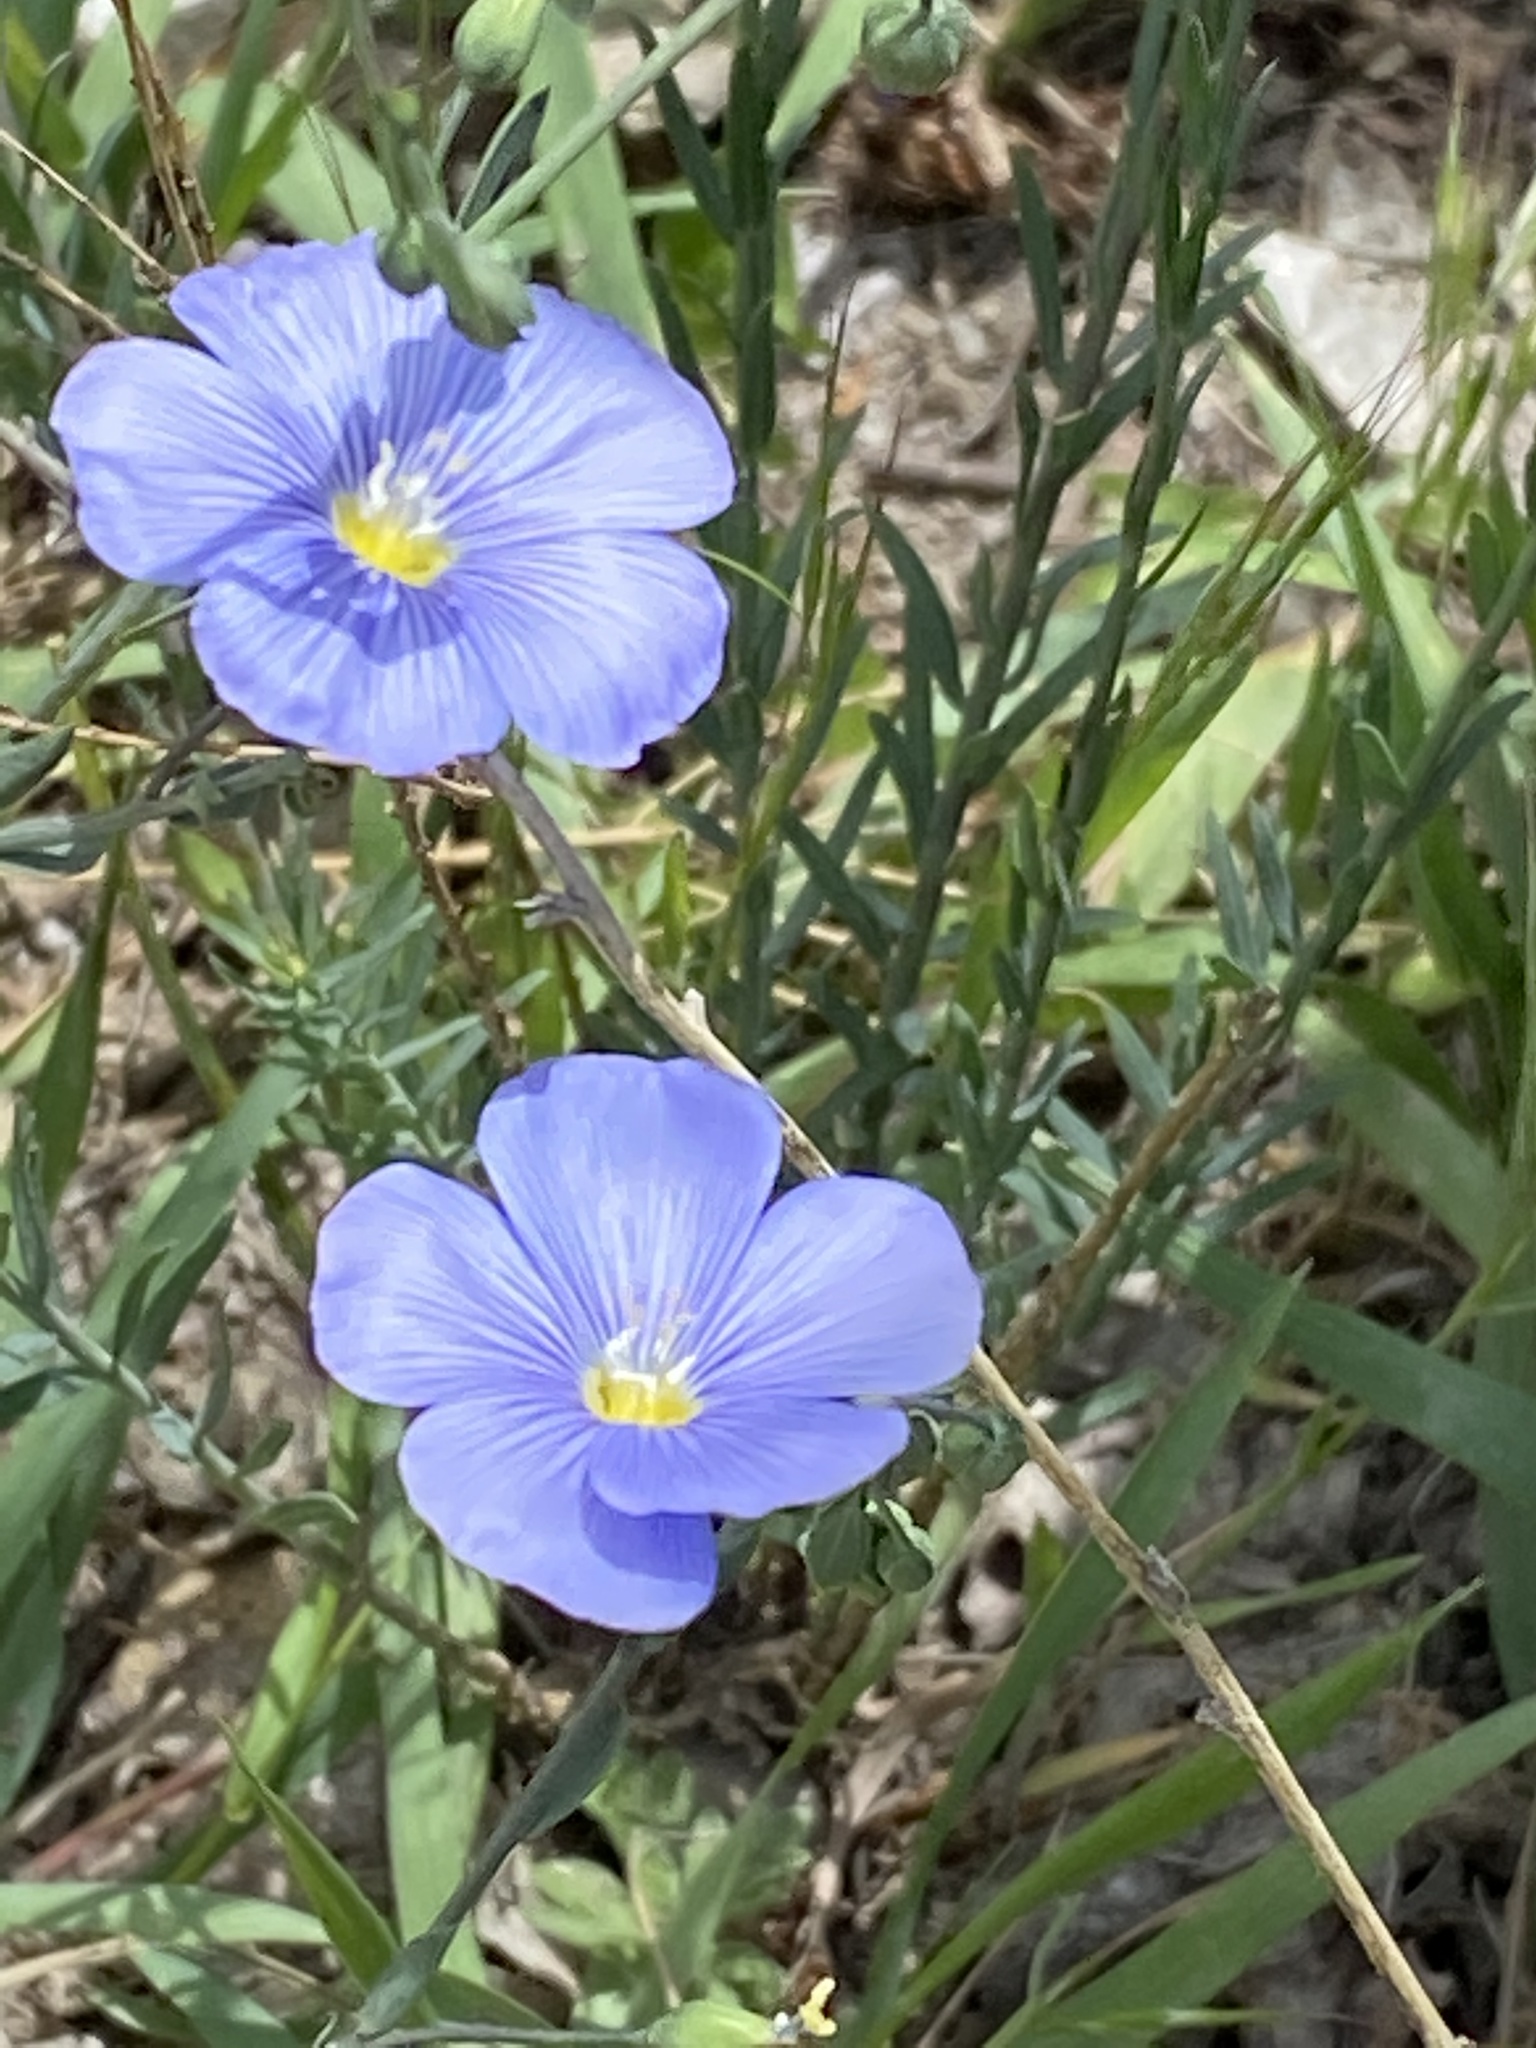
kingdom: Plantae
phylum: Tracheophyta
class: Magnoliopsida
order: Malpighiales
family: Linaceae
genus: Linum
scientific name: Linum lewisii
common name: Prairie flax
